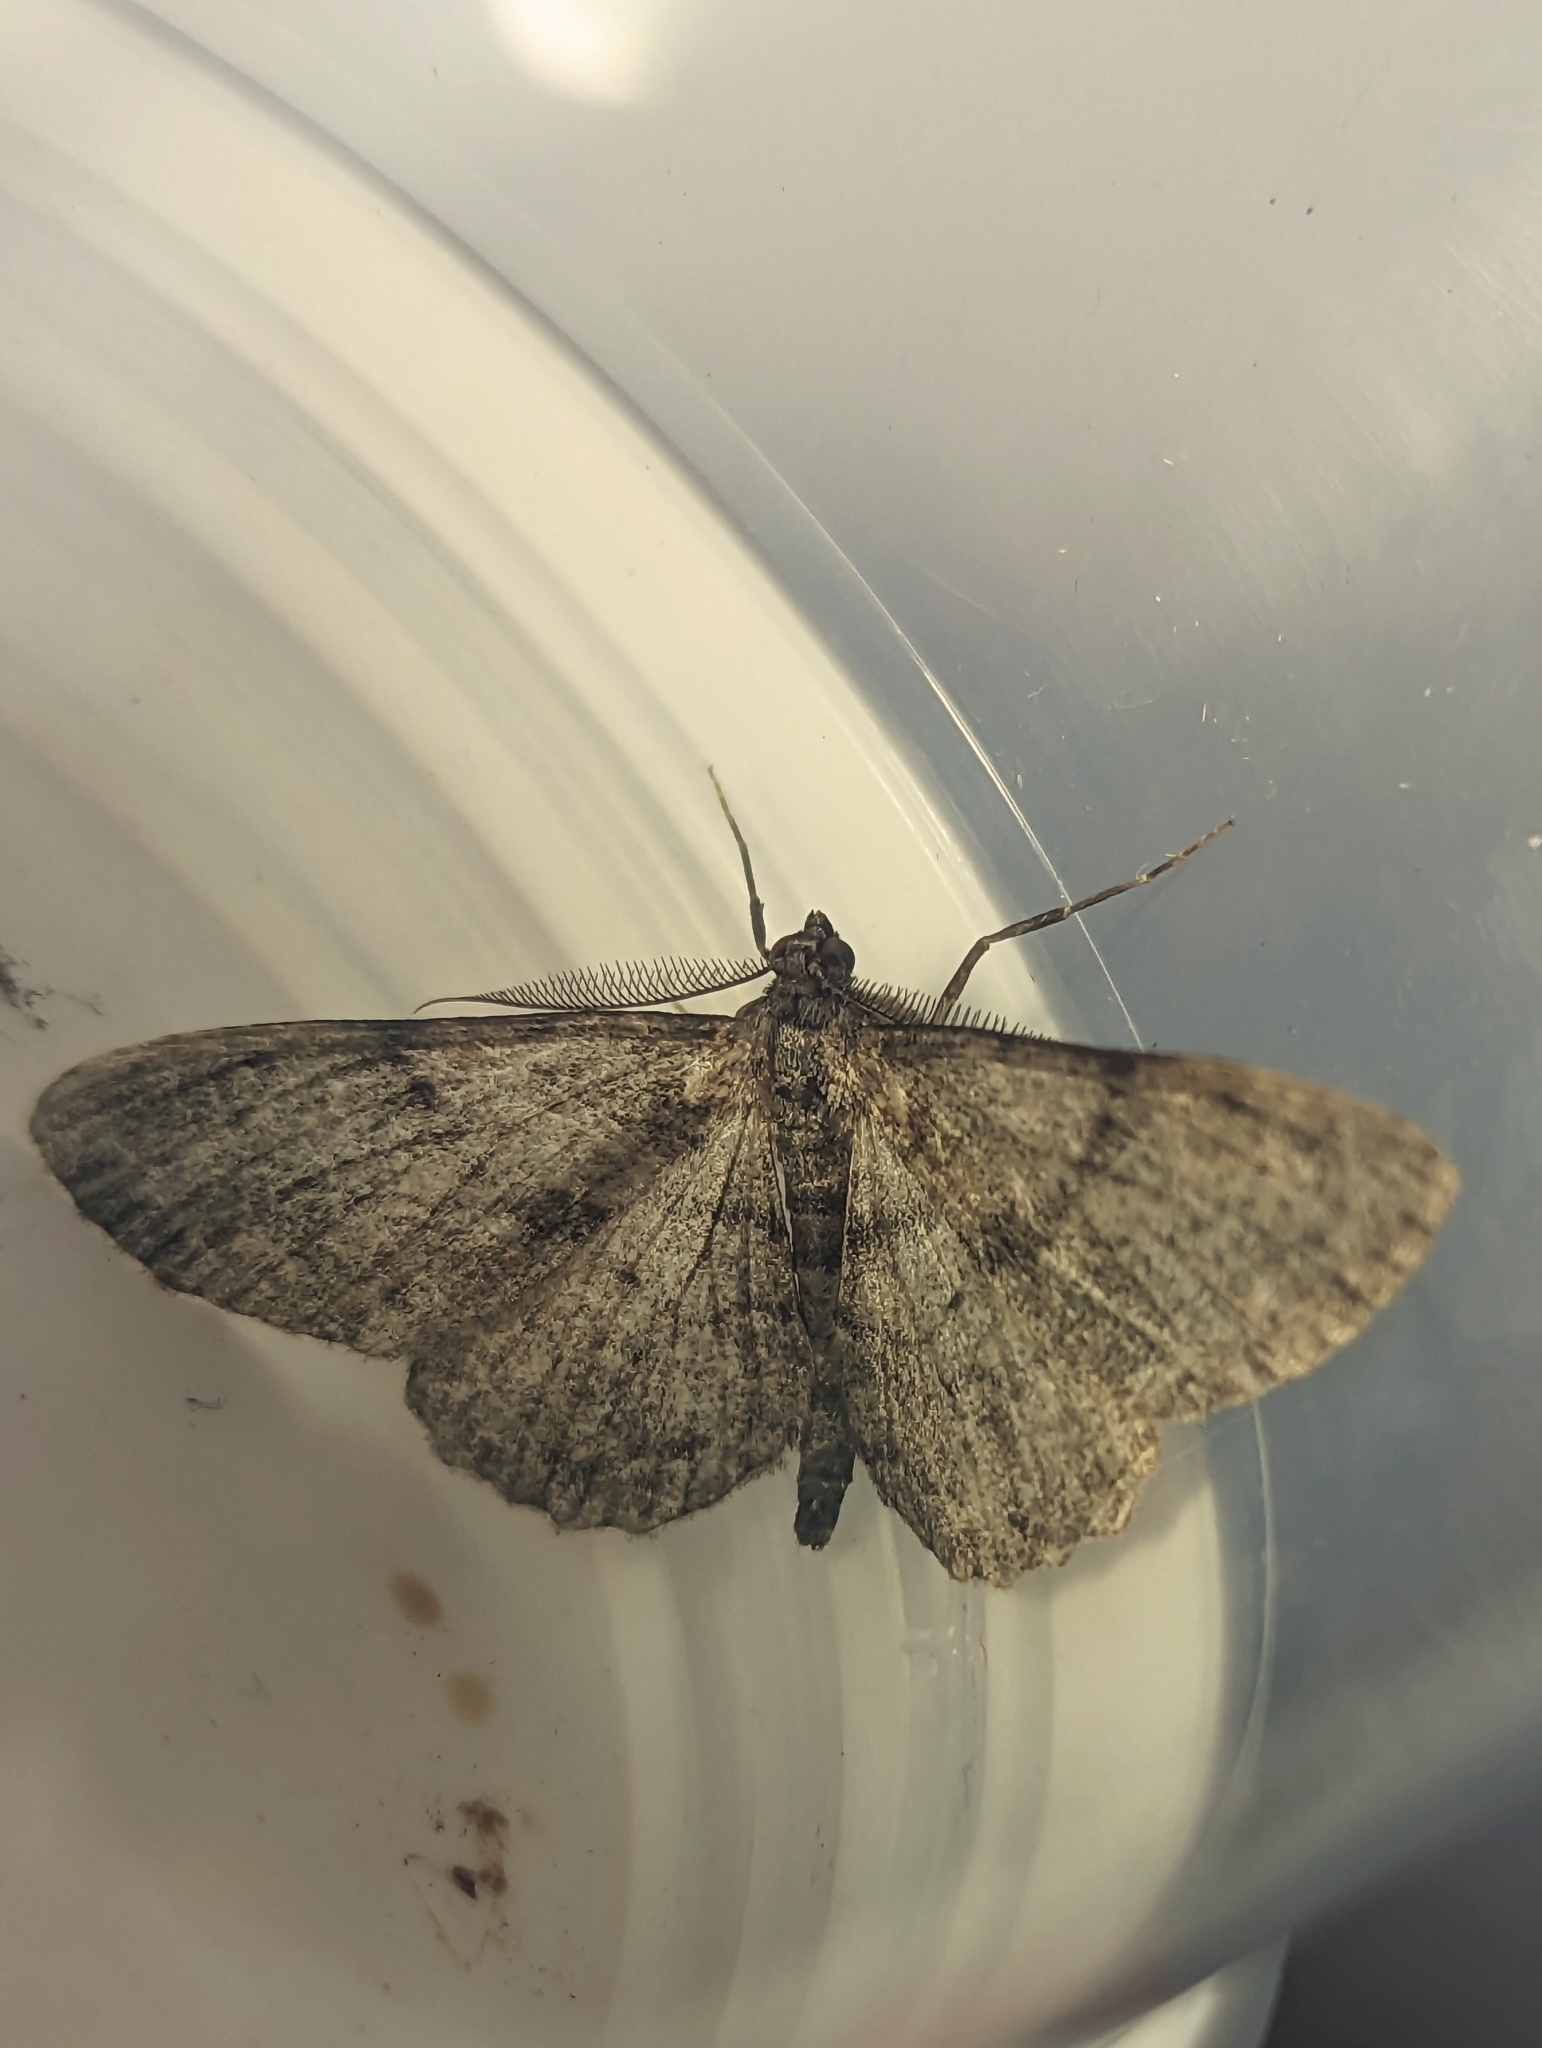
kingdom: Animalia
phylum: Arthropoda
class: Insecta
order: Lepidoptera
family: Geometridae
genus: Peribatodes
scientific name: Peribatodes rhomboidaria
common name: Willow beauty
